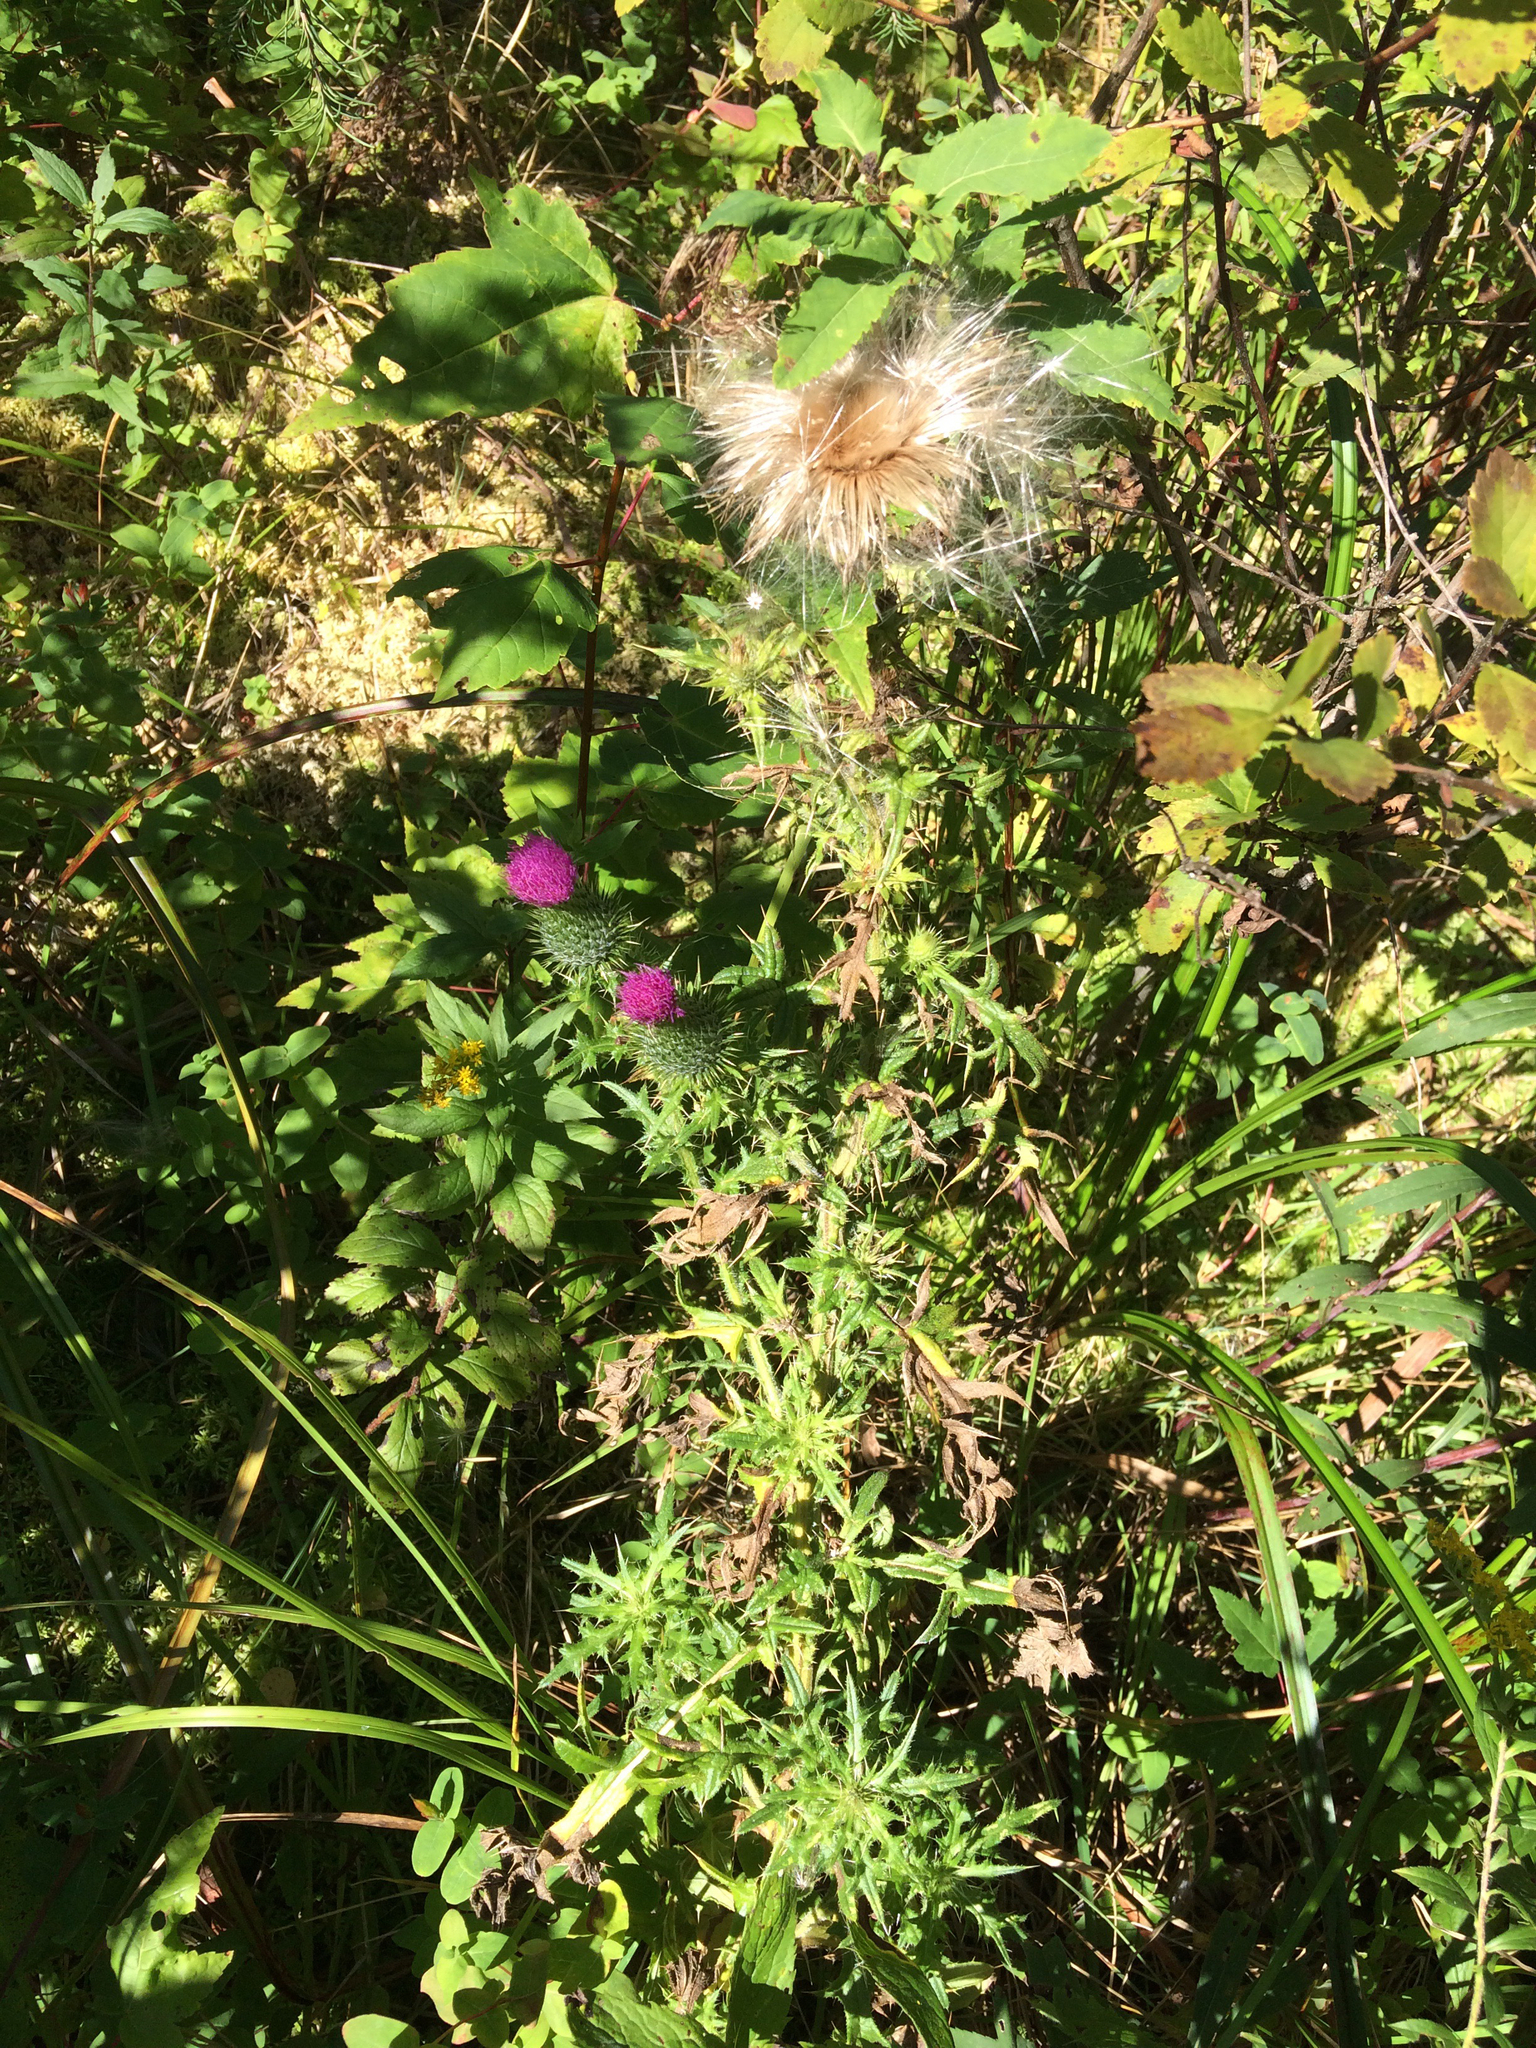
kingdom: Plantae
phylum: Tracheophyta
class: Magnoliopsida
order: Asterales
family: Asteraceae
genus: Cirsium
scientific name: Cirsium vulgare
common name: Bull thistle
